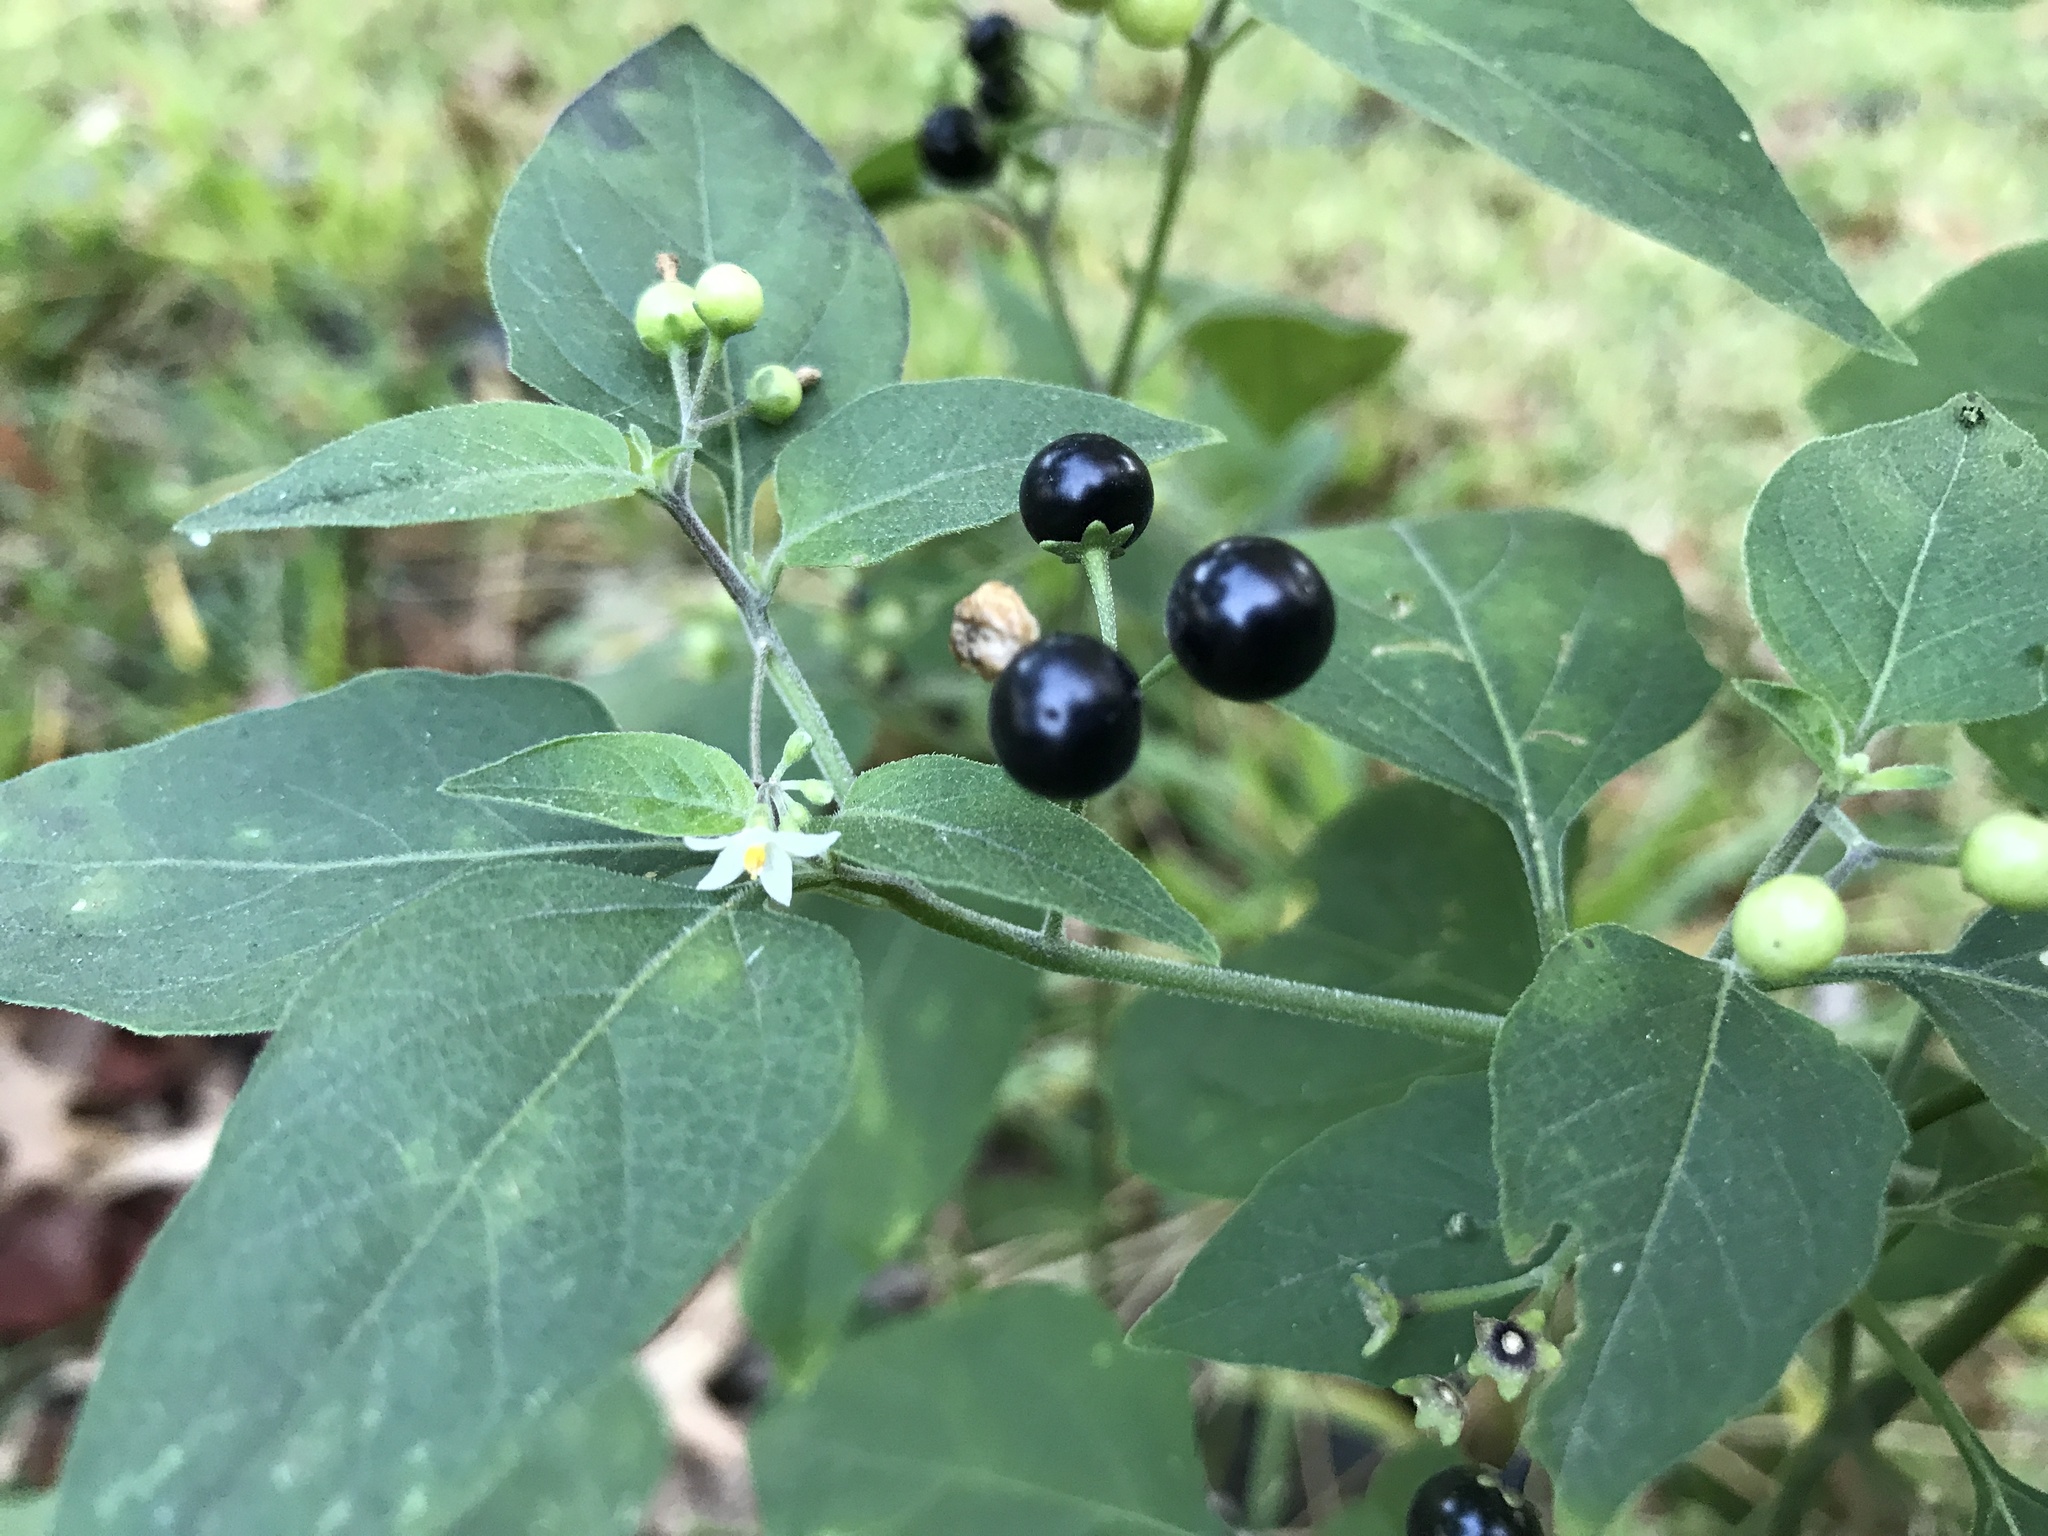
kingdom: Plantae
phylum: Tracheophyta
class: Magnoliopsida
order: Solanales
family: Solanaceae
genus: Solanum
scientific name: Solanum americanum
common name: American black nightshade
